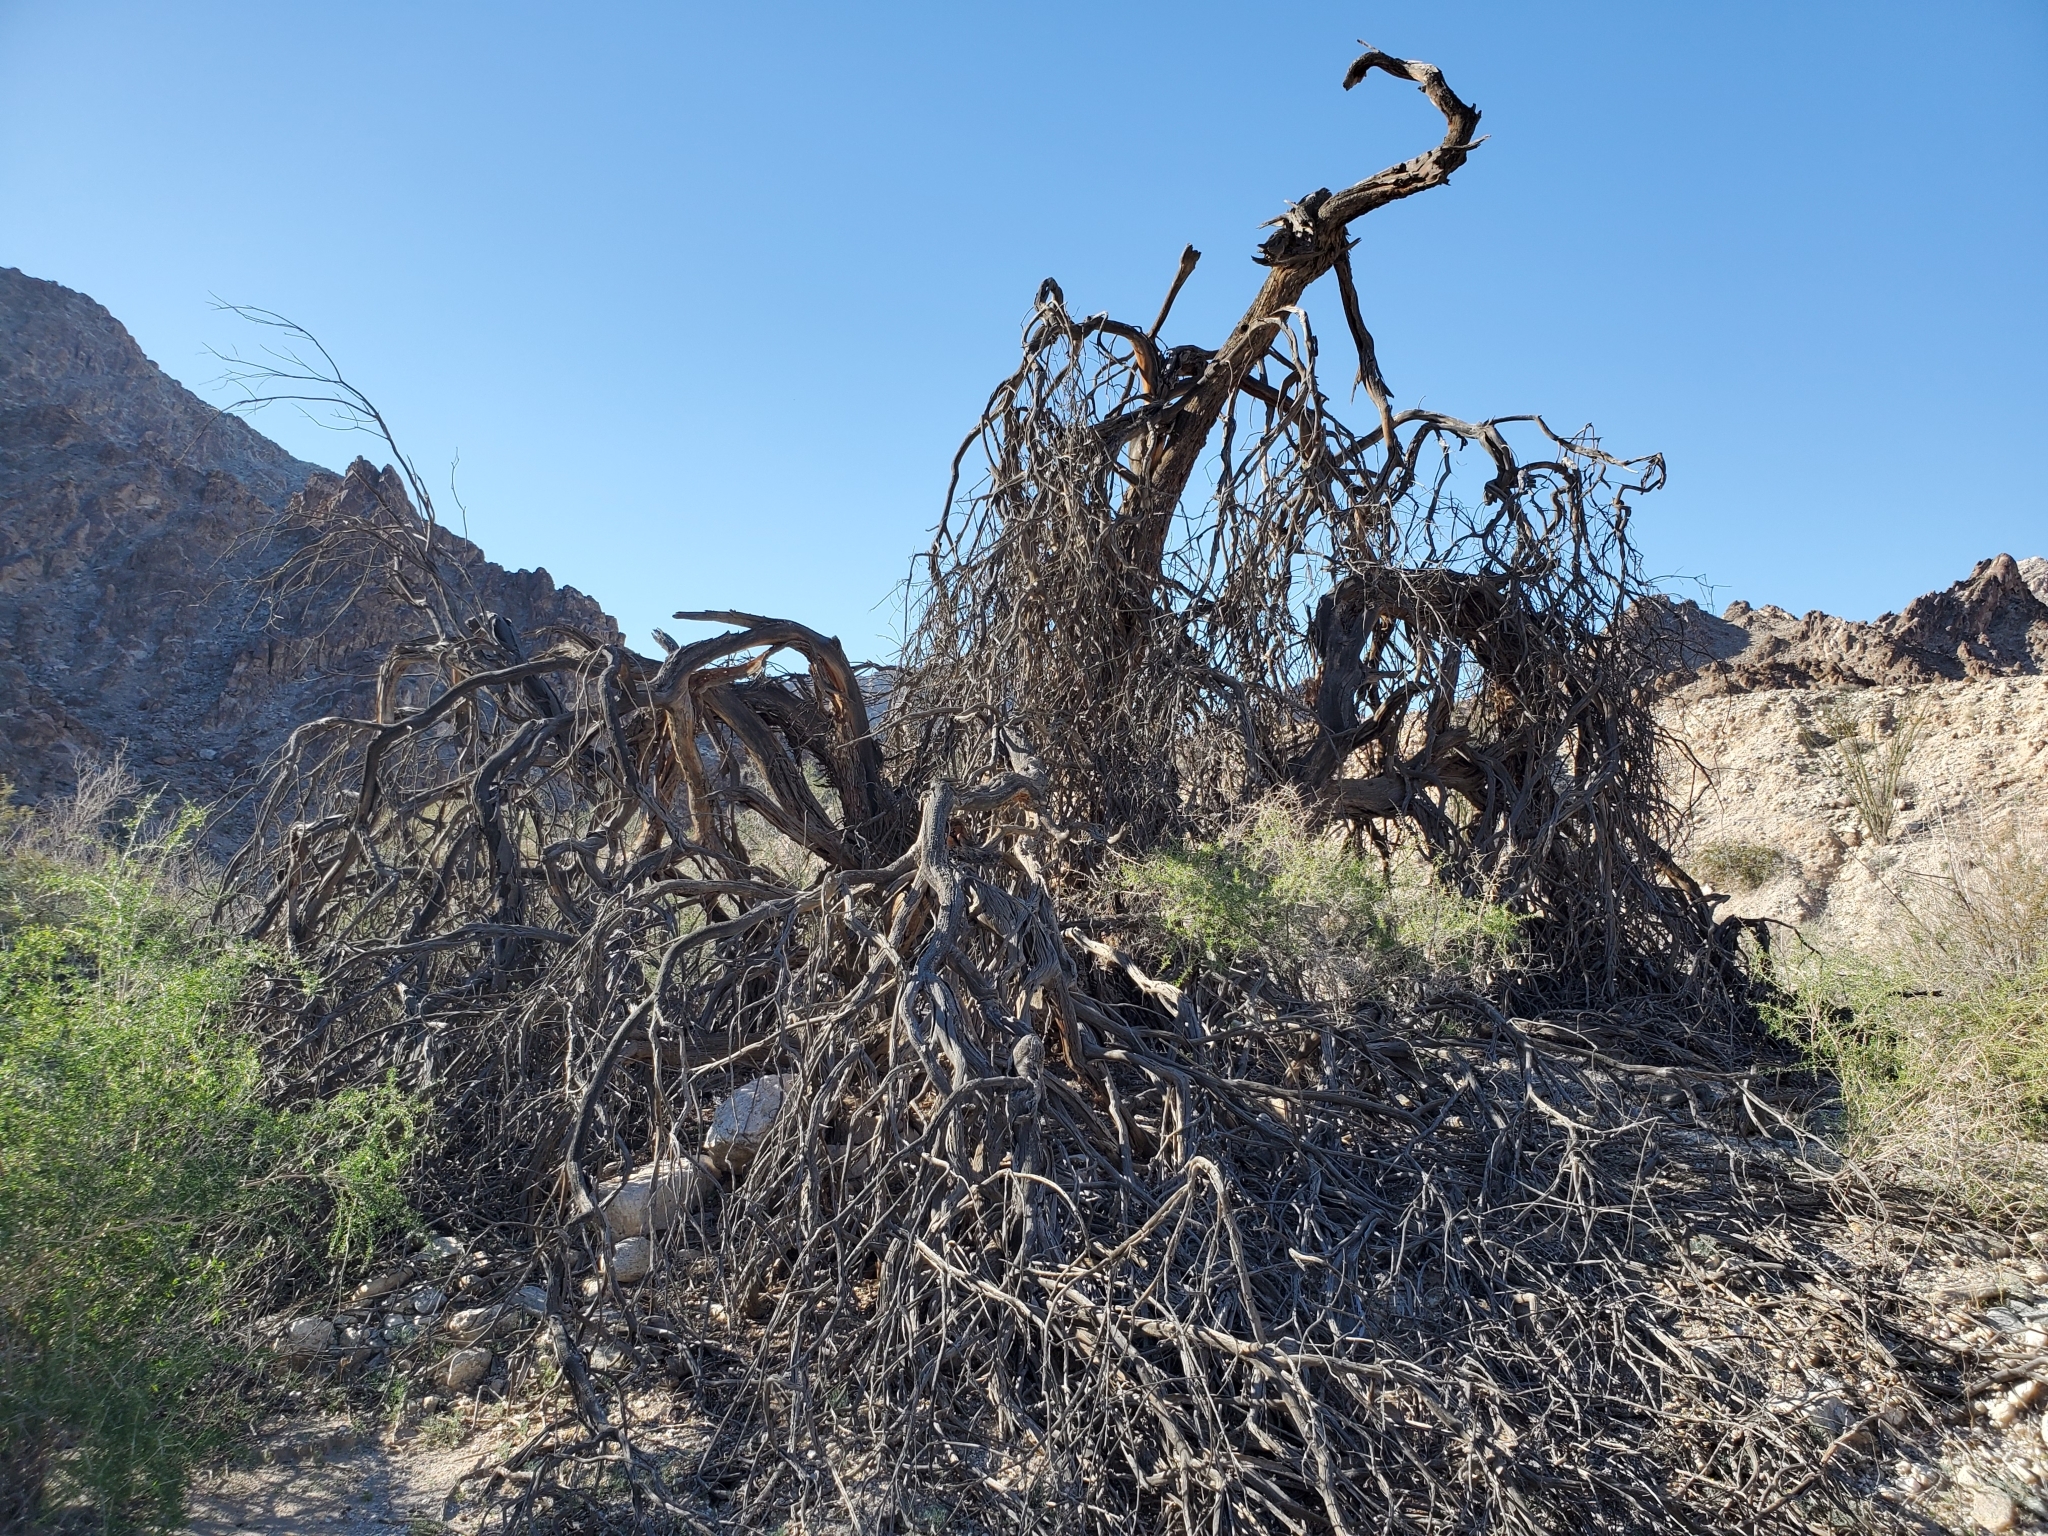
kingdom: Plantae
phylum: Tracheophyta
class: Magnoliopsida
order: Fabales
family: Fabaceae
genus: Olneya
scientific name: Olneya tesota
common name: Desert ironwood
